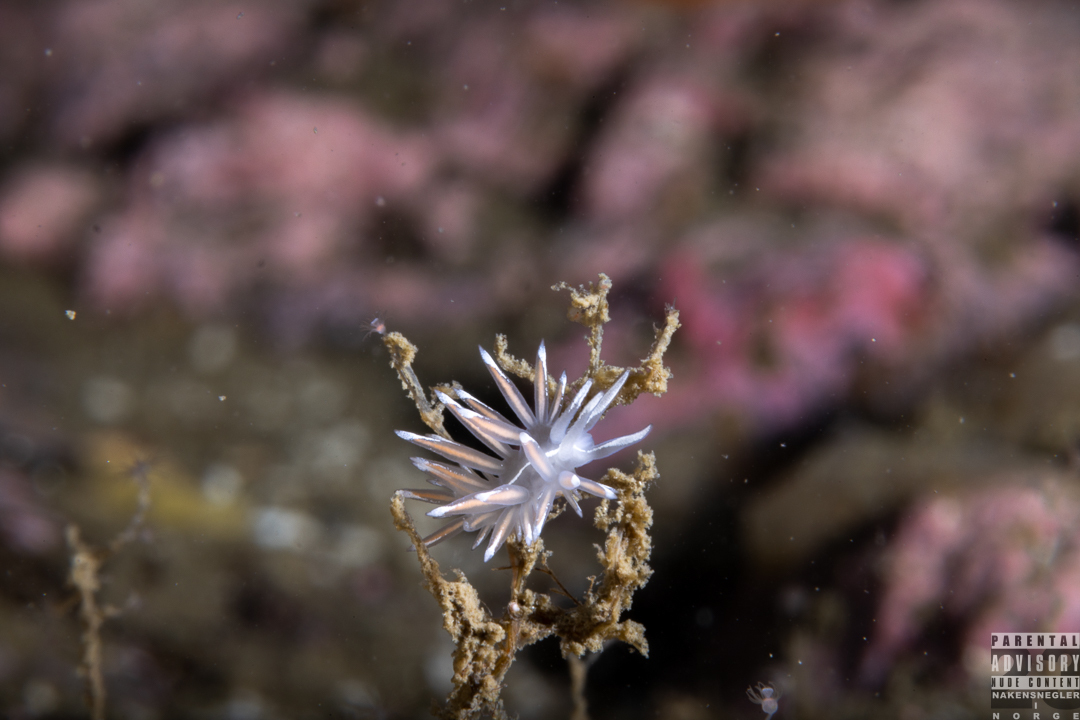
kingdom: Animalia
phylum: Mollusca
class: Gastropoda
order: Nudibranchia
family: Coryphellidae
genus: Coryphella
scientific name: Coryphella lineata
